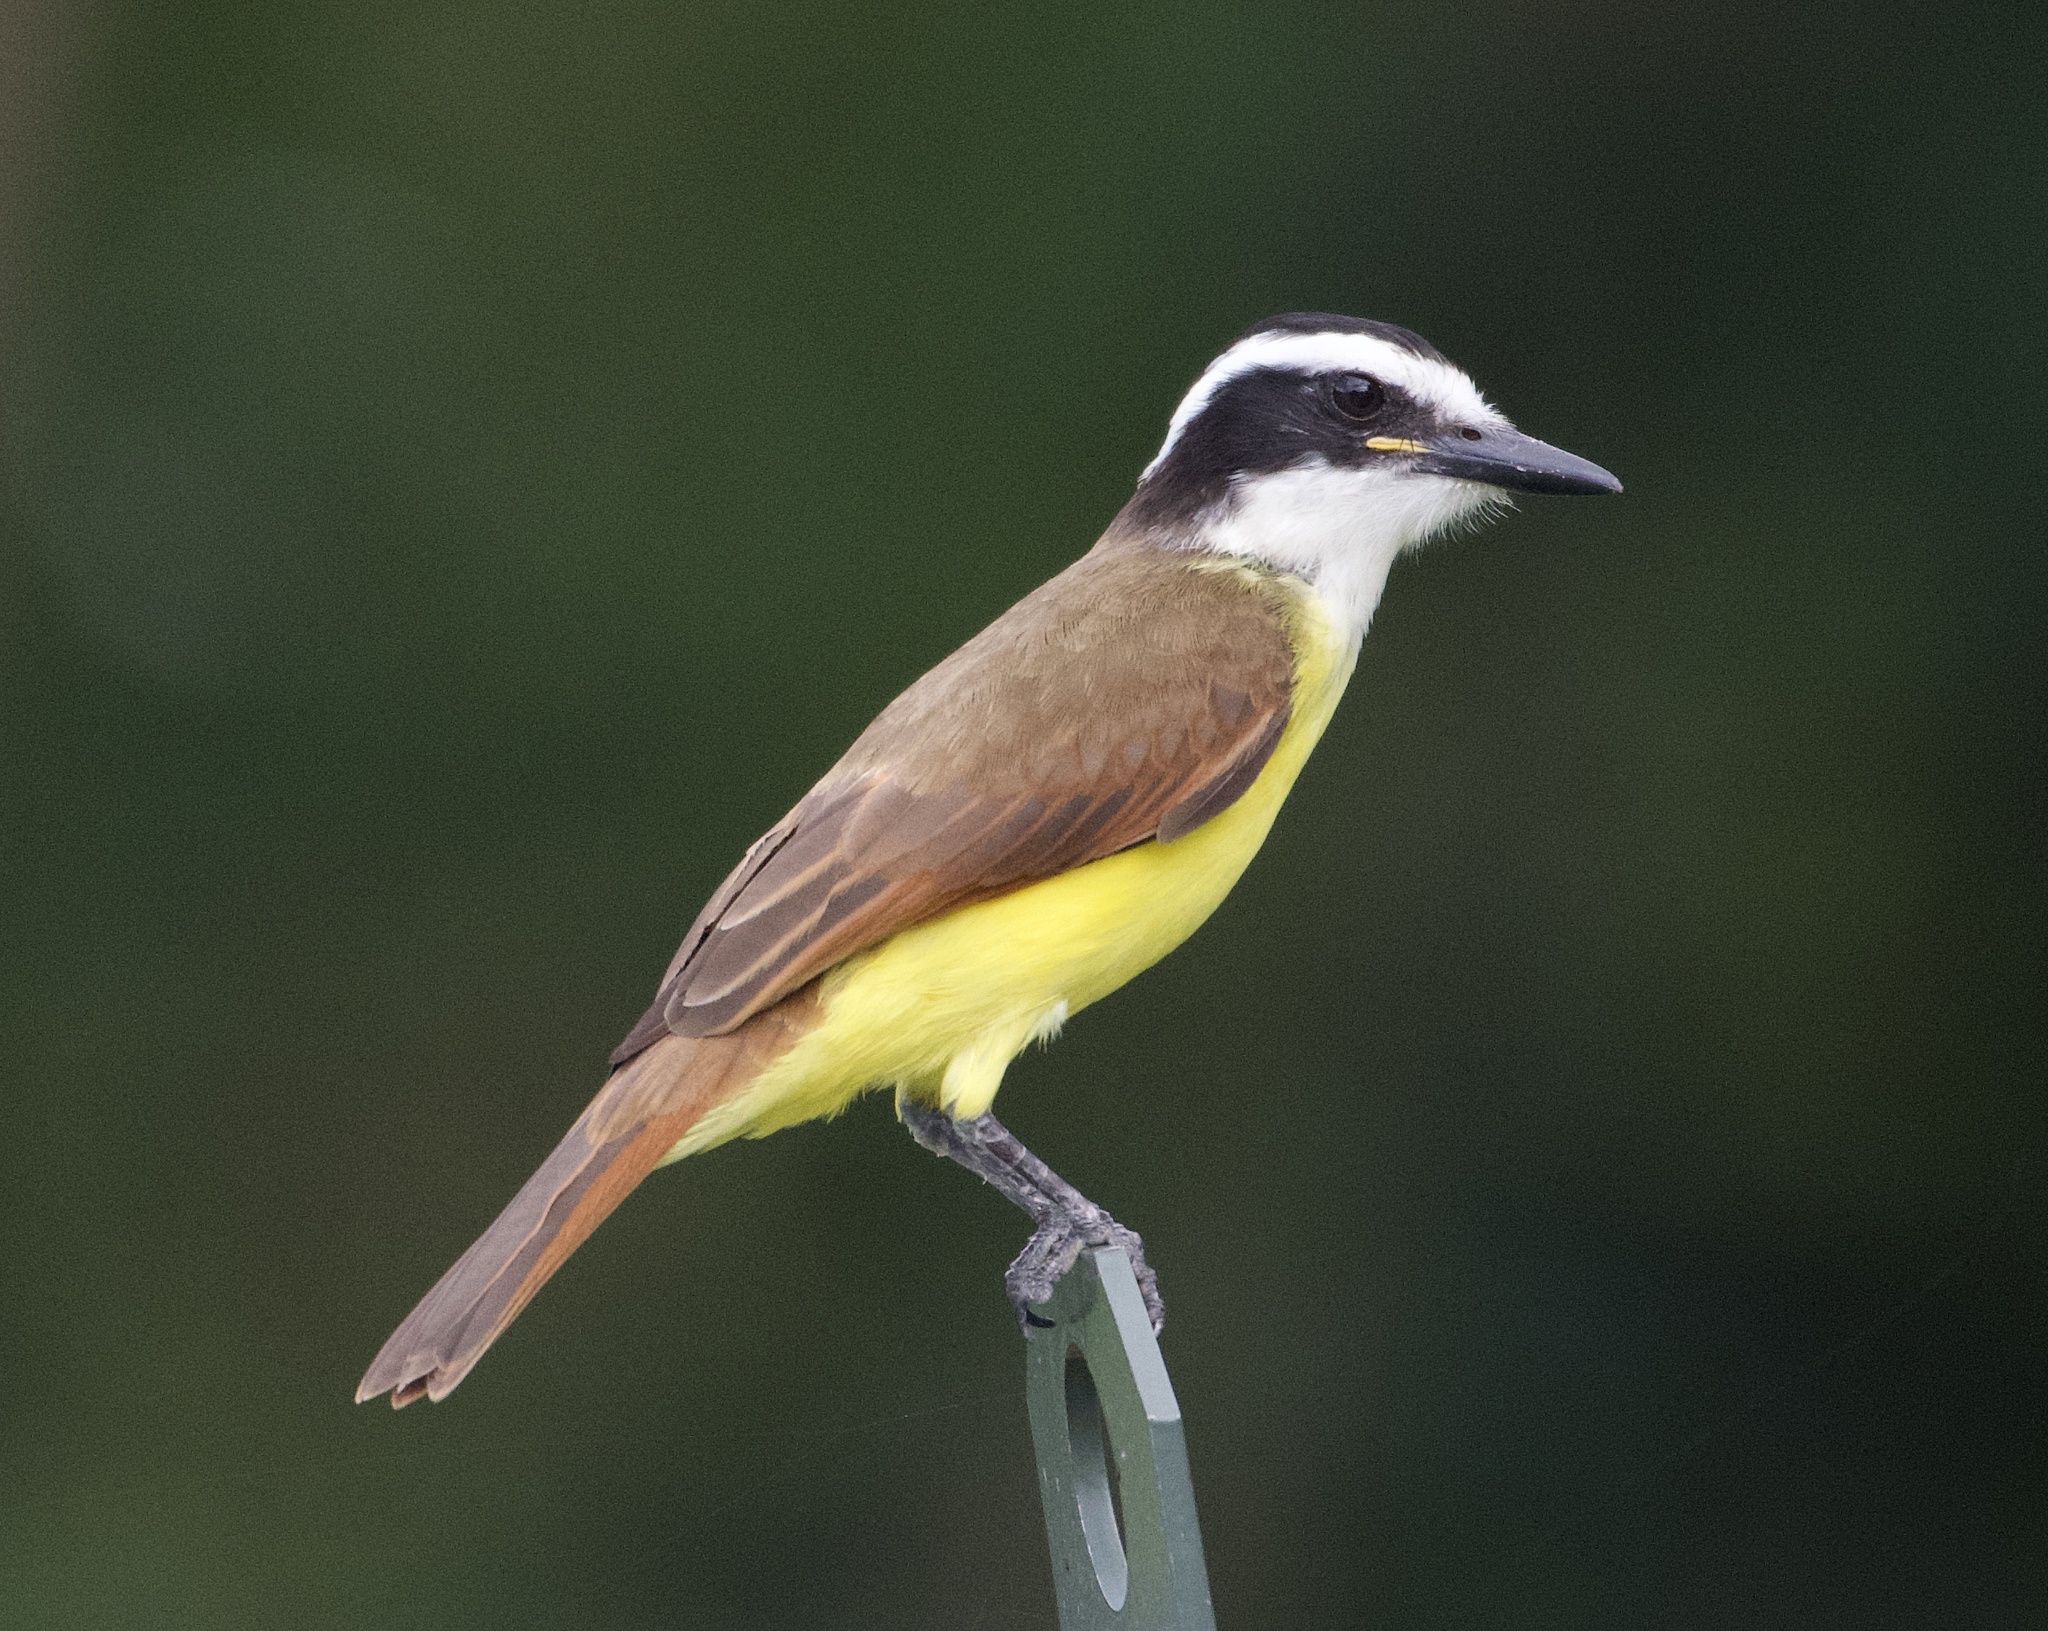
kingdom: Animalia
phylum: Chordata
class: Aves
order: Passeriformes
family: Tyrannidae
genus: Pitangus
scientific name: Pitangus sulphuratus
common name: Great kiskadee
